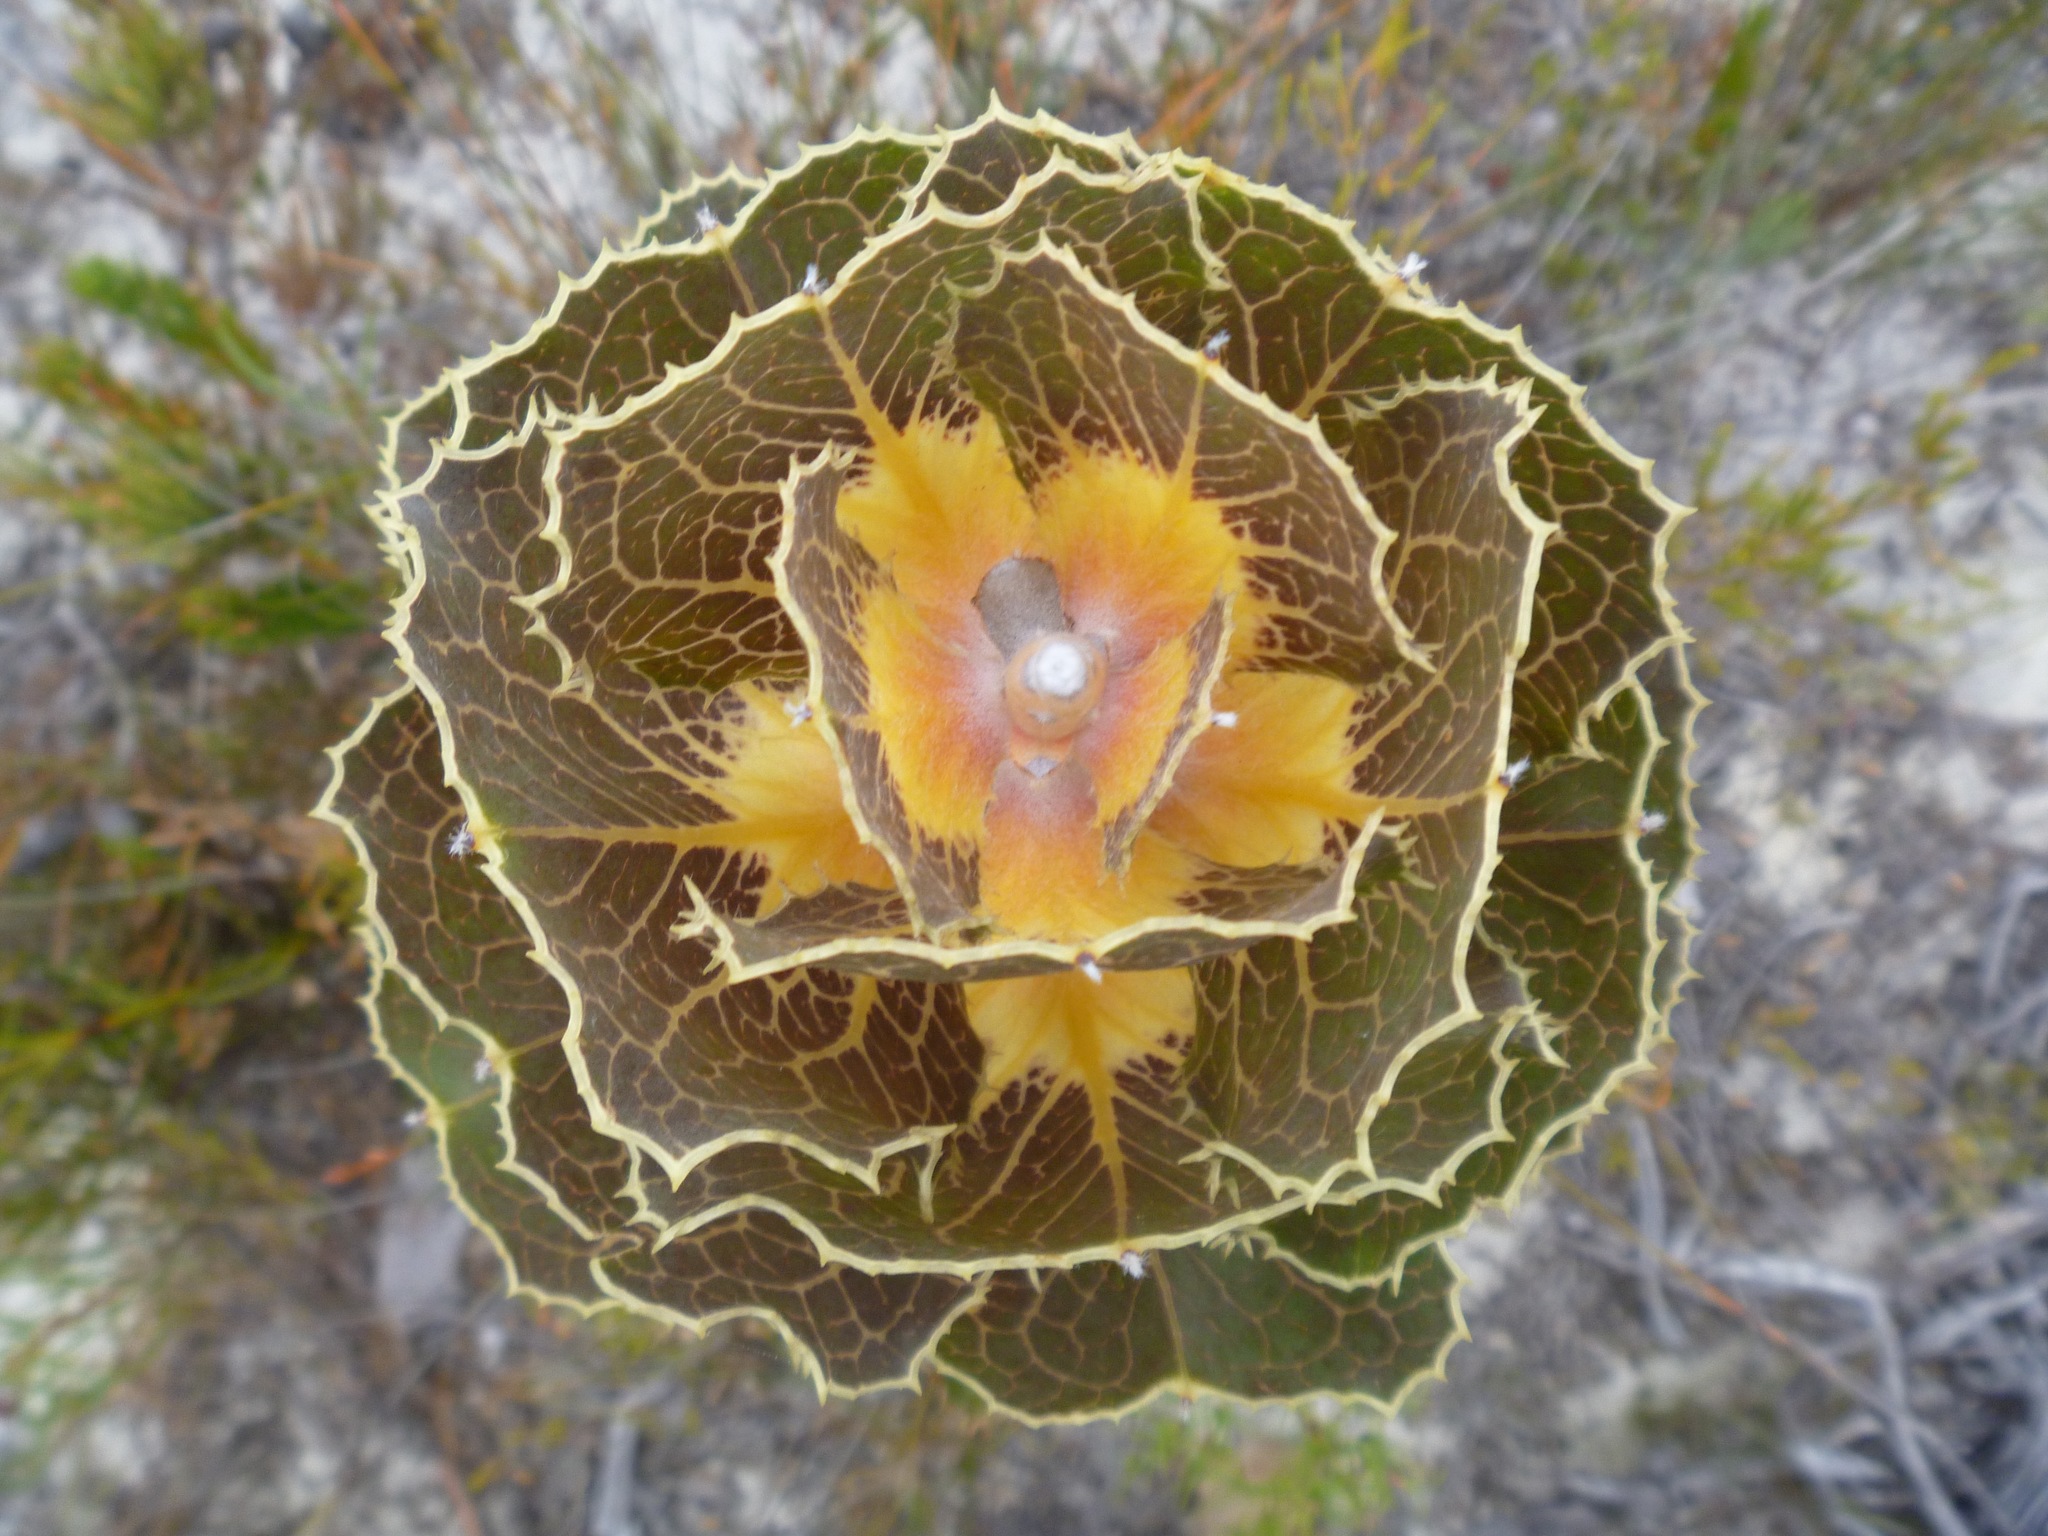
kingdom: Plantae
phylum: Tracheophyta
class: Magnoliopsida
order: Proteales
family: Proteaceae
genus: Hakea
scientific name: Hakea victoria
